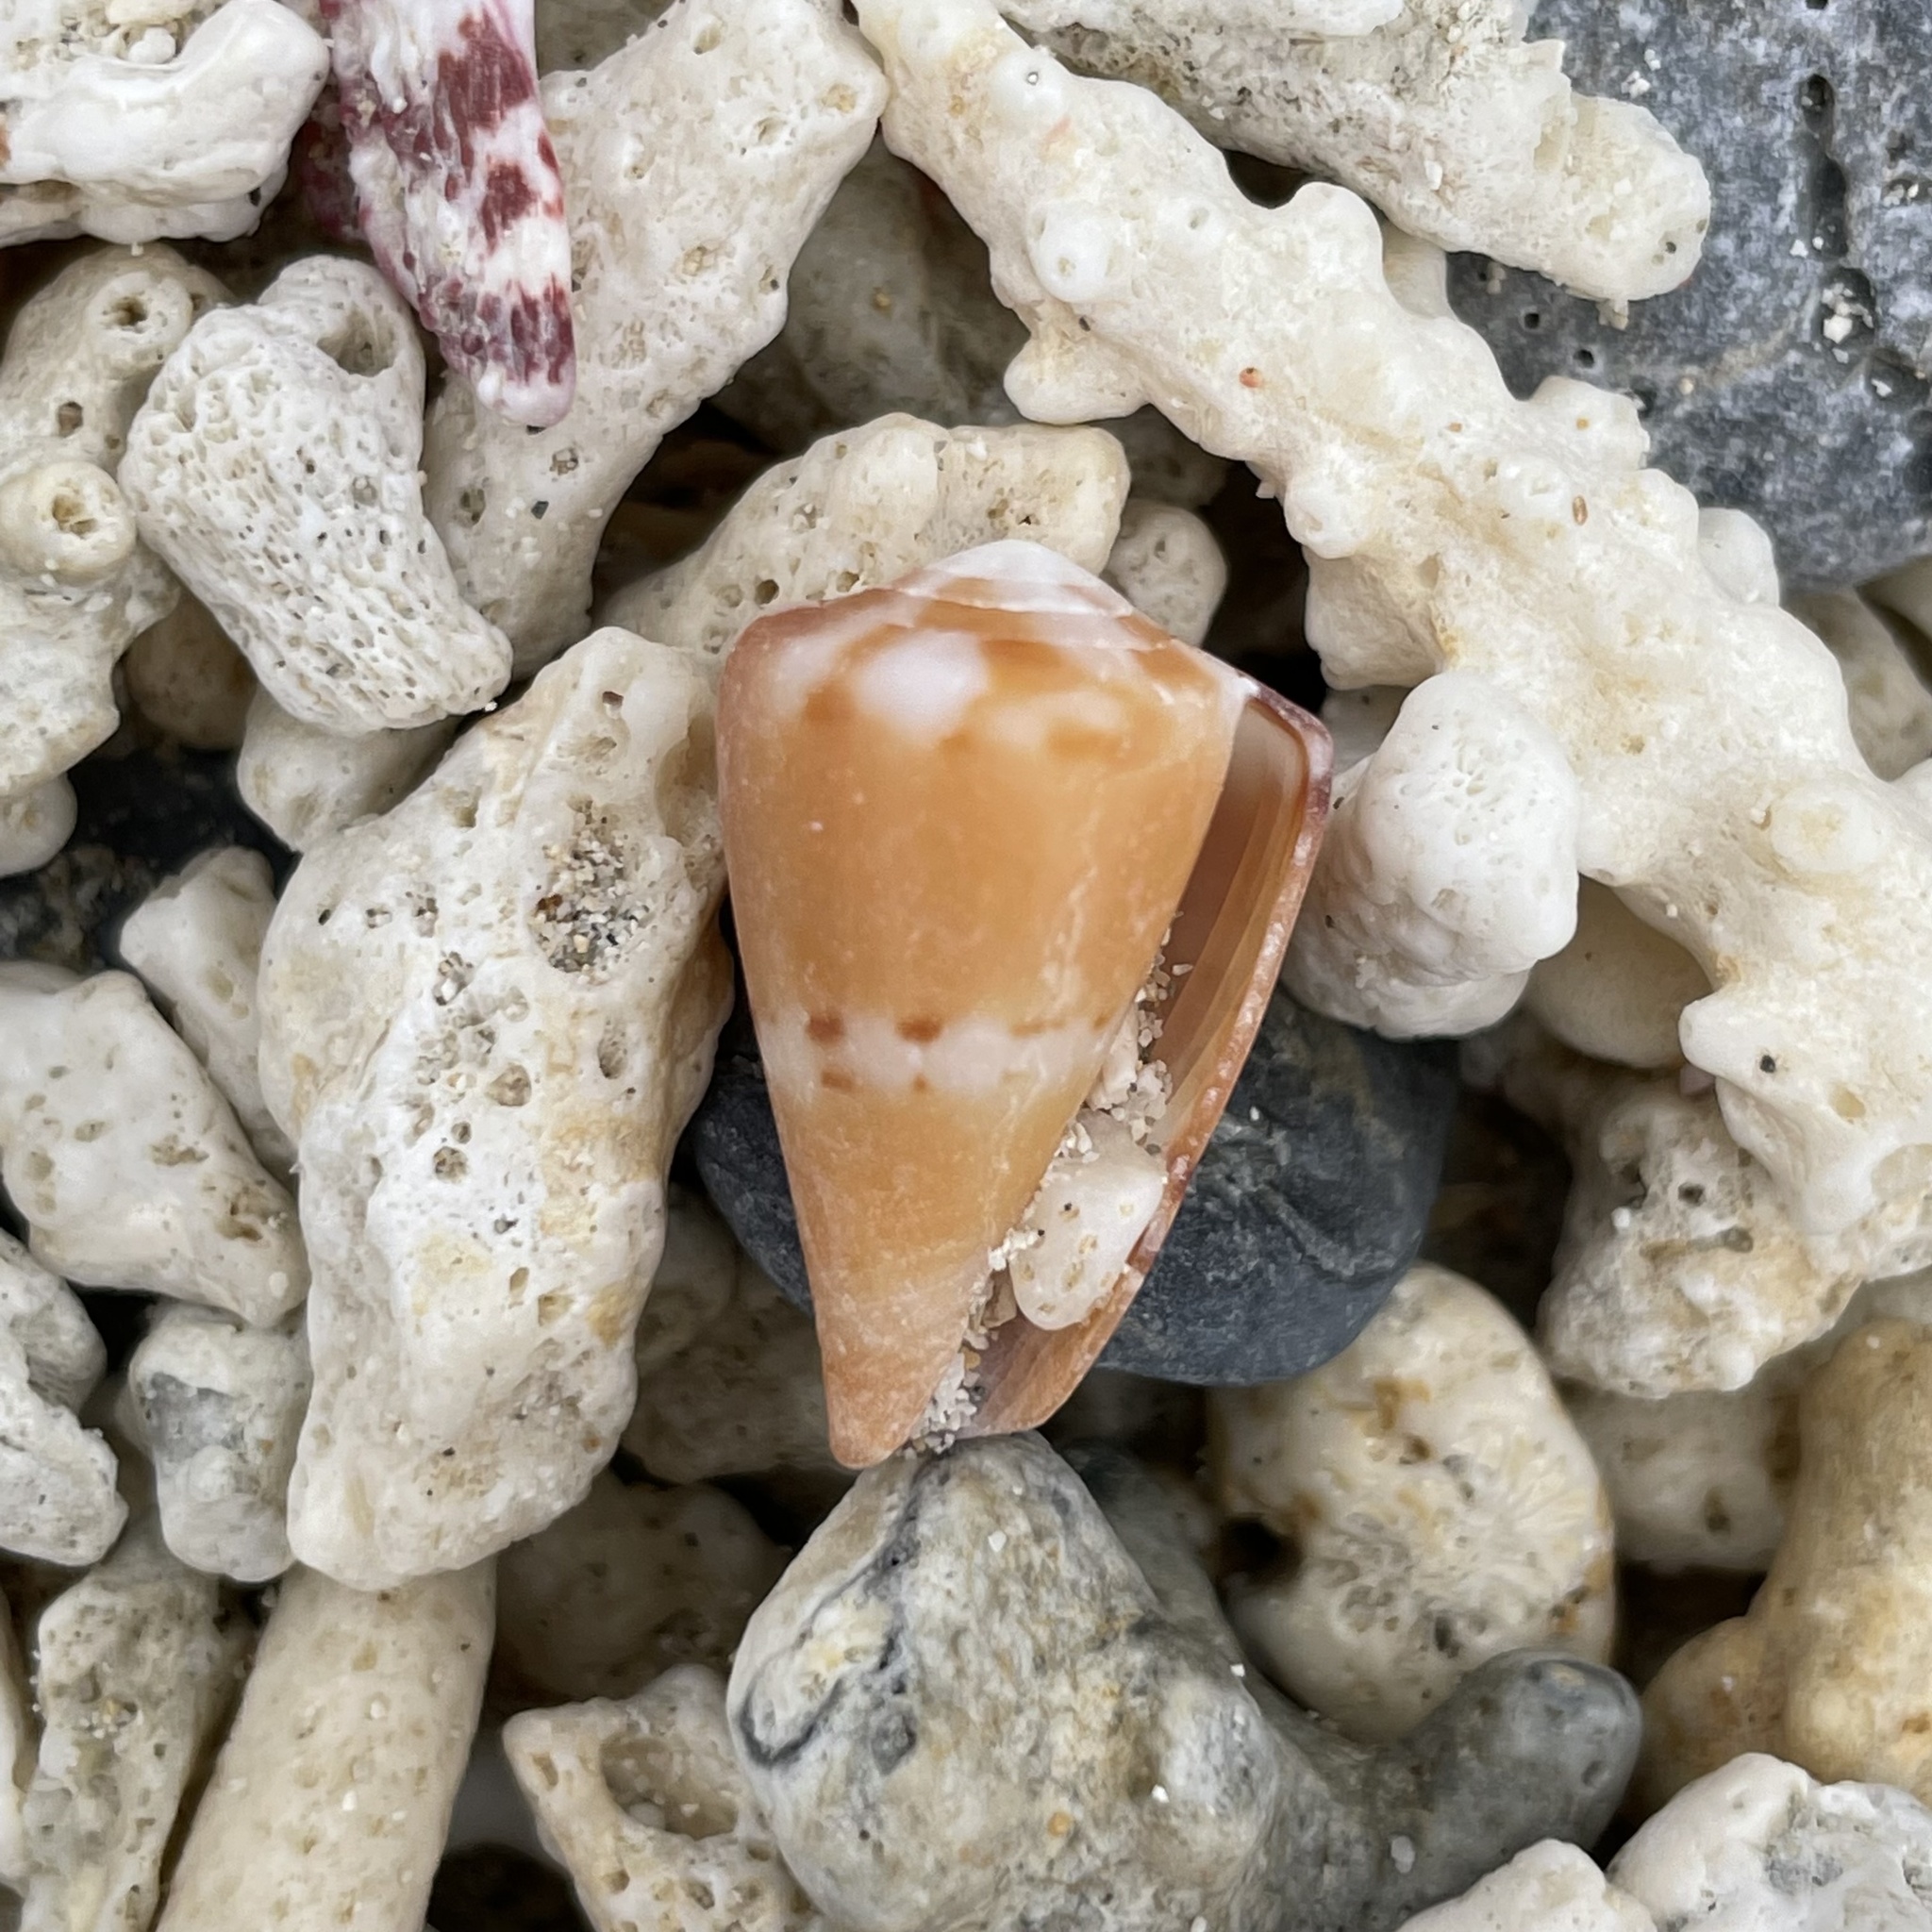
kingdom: Animalia
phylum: Mollusca
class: Gastropoda
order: Neogastropoda
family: Conidae
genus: Conus
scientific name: Conus capitaneus
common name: Captain cone
